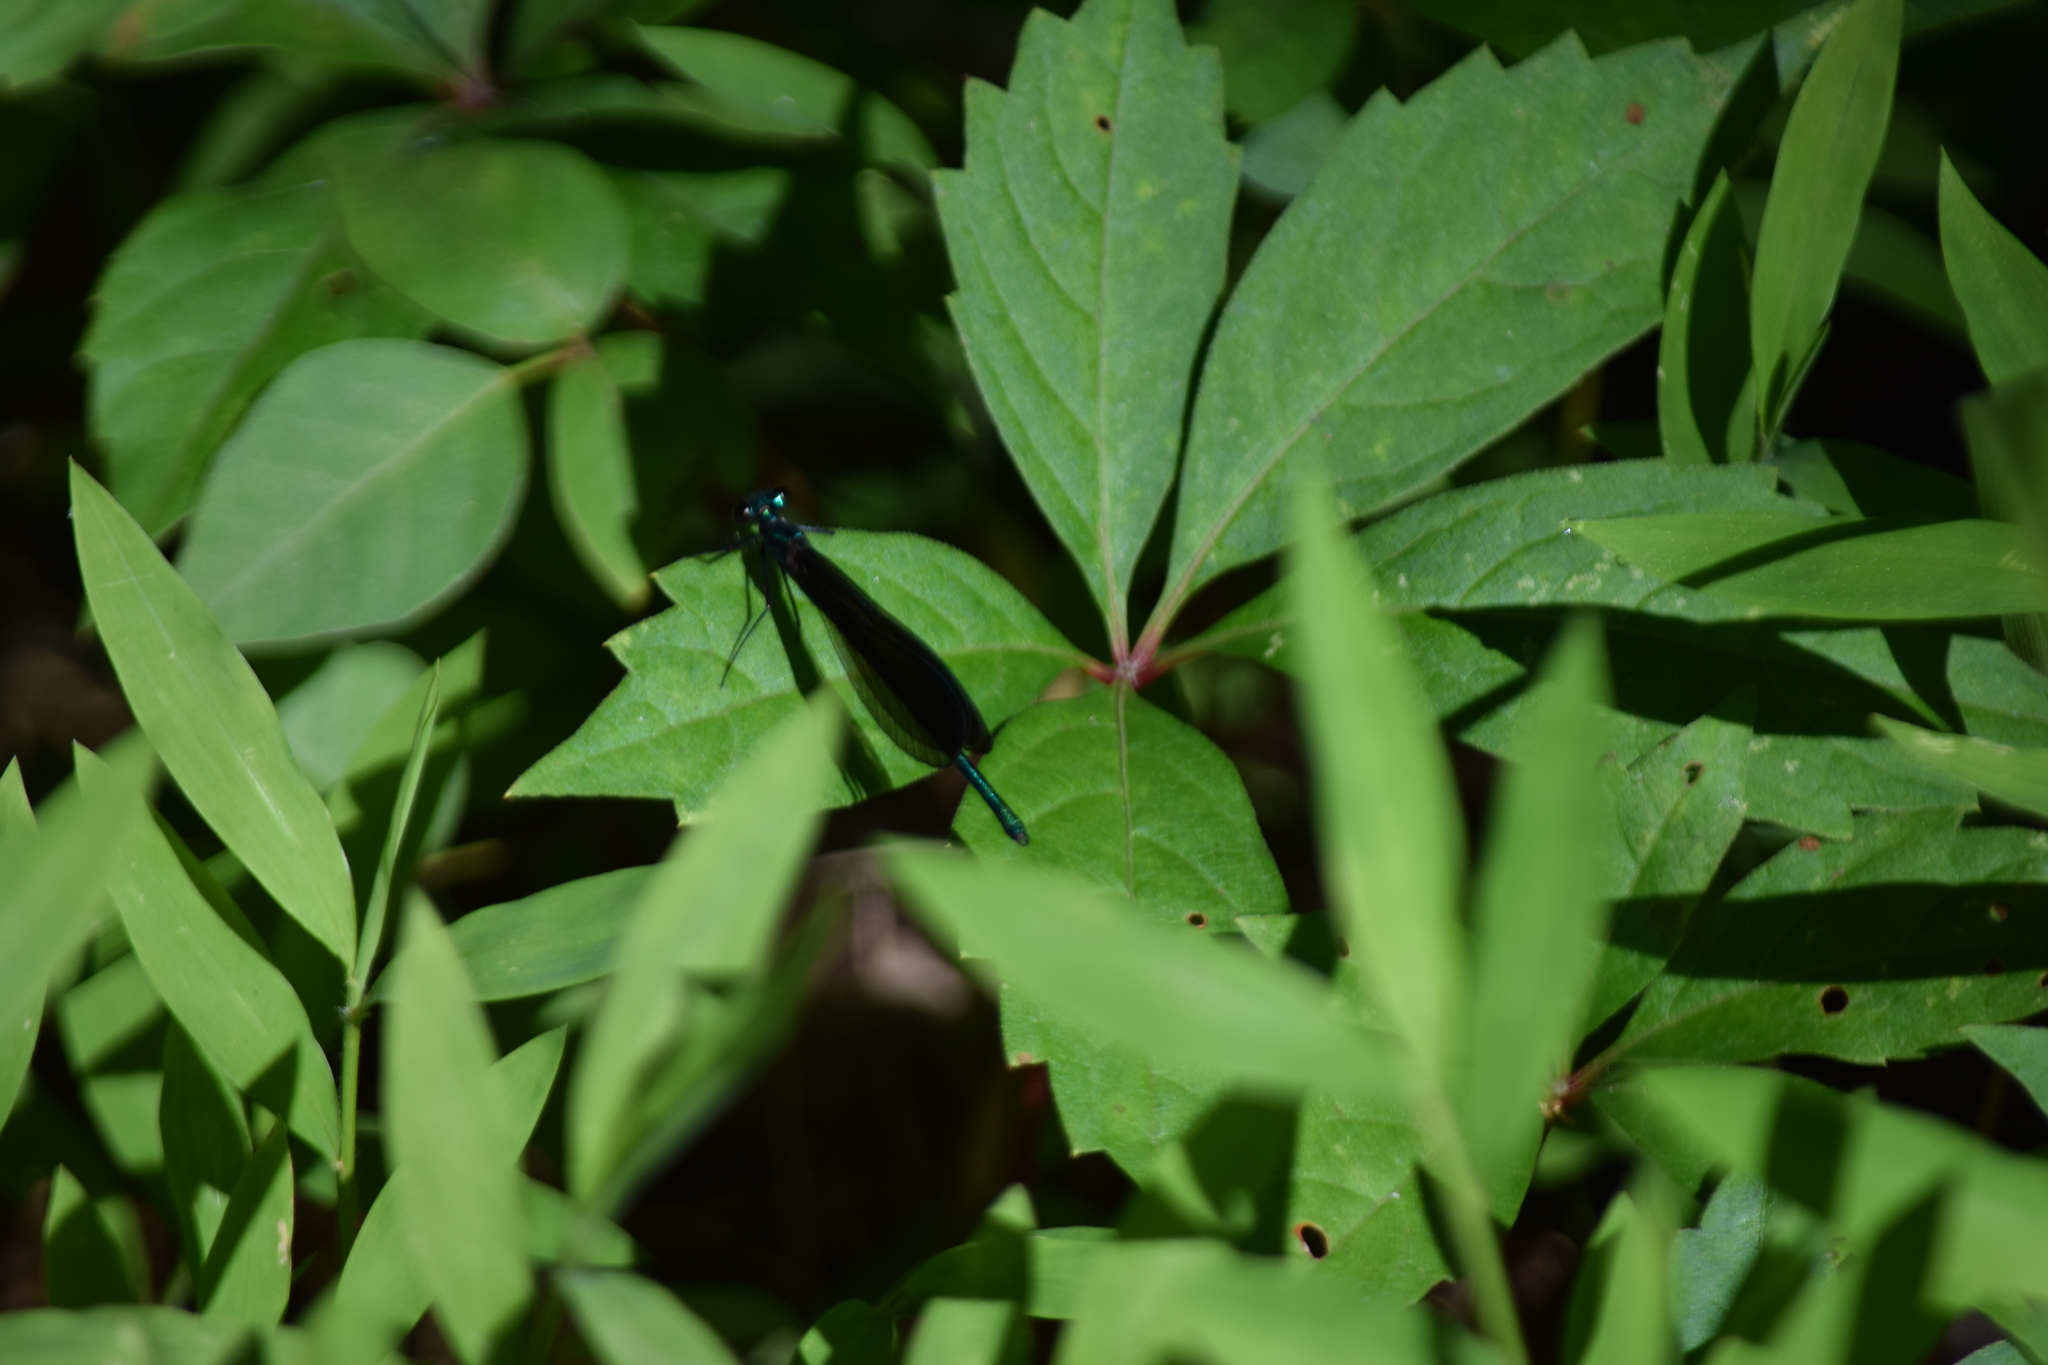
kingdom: Animalia
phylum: Arthropoda
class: Insecta
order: Odonata
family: Calopterygidae
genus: Calopteryx
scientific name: Calopteryx maculata
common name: Ebony jewelwing
